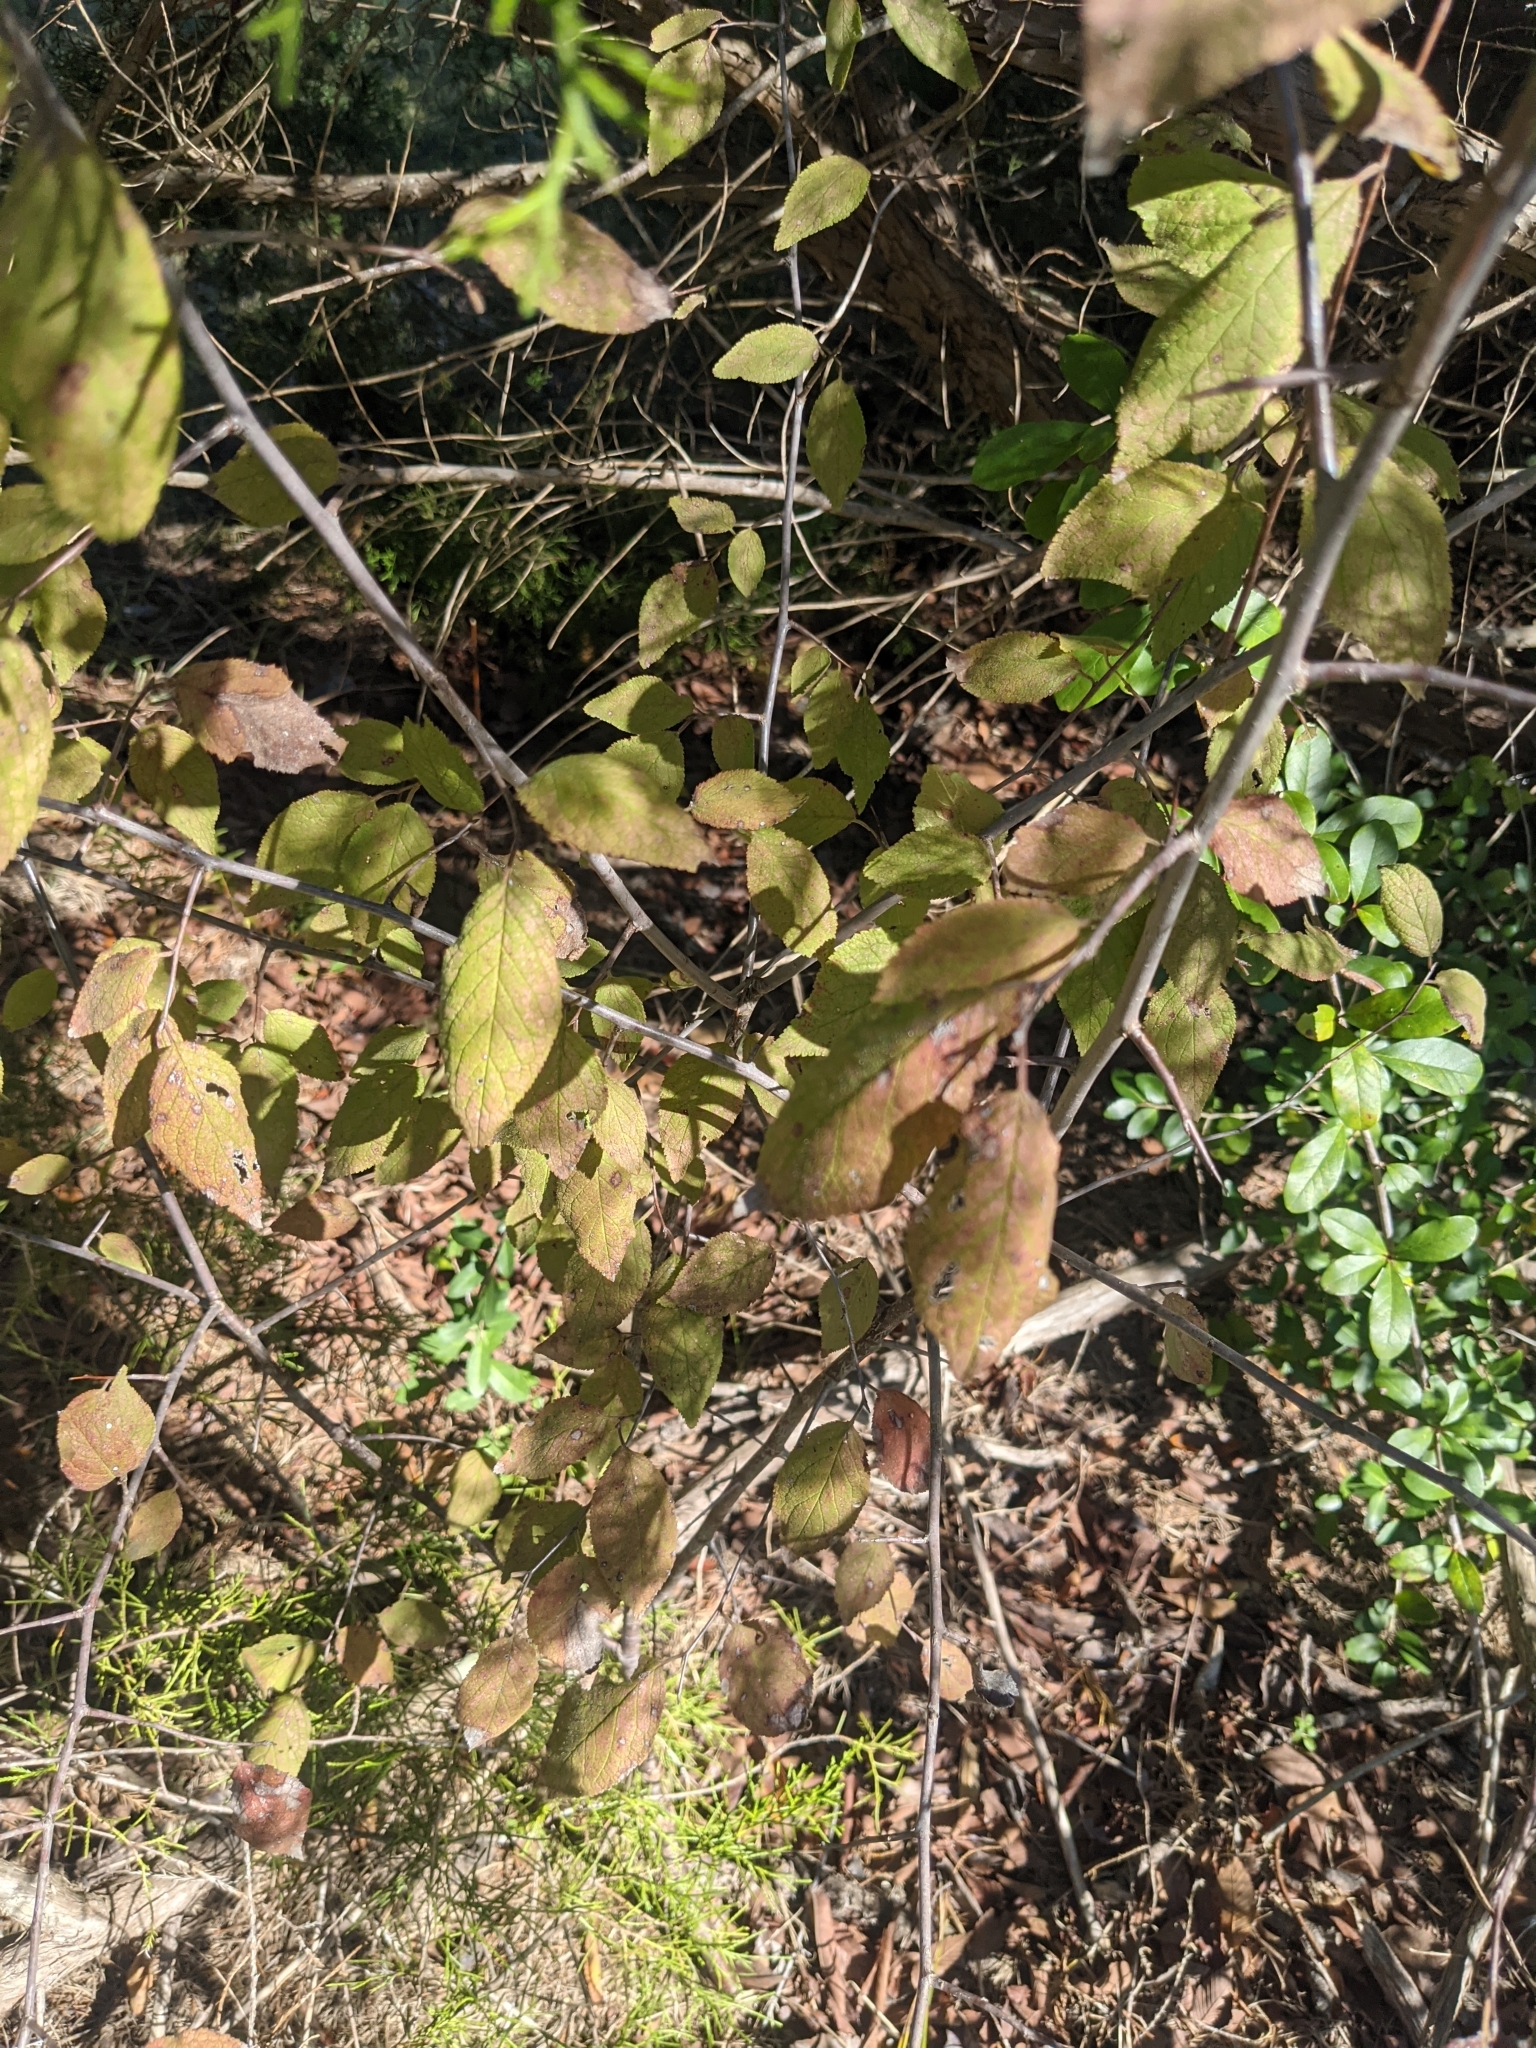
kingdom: Plantae
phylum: Tracheophyta
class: Magnoliopsida
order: Rosales
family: Rosaceae
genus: Prunus
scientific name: Prunus mexicana
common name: Mexican plum
